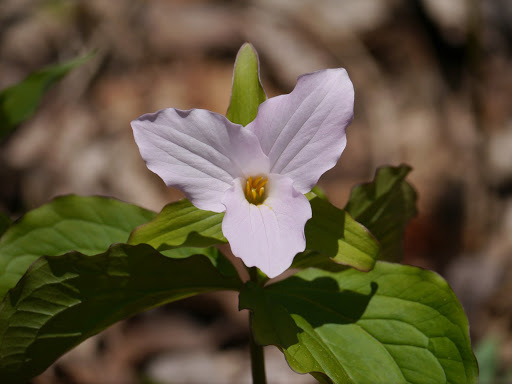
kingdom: Plantae
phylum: Tracheophyta
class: Liliopsida
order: Liliales
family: Melanthiaceae
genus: Trillium
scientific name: Trillium grandiflorum
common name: Great white trillium
